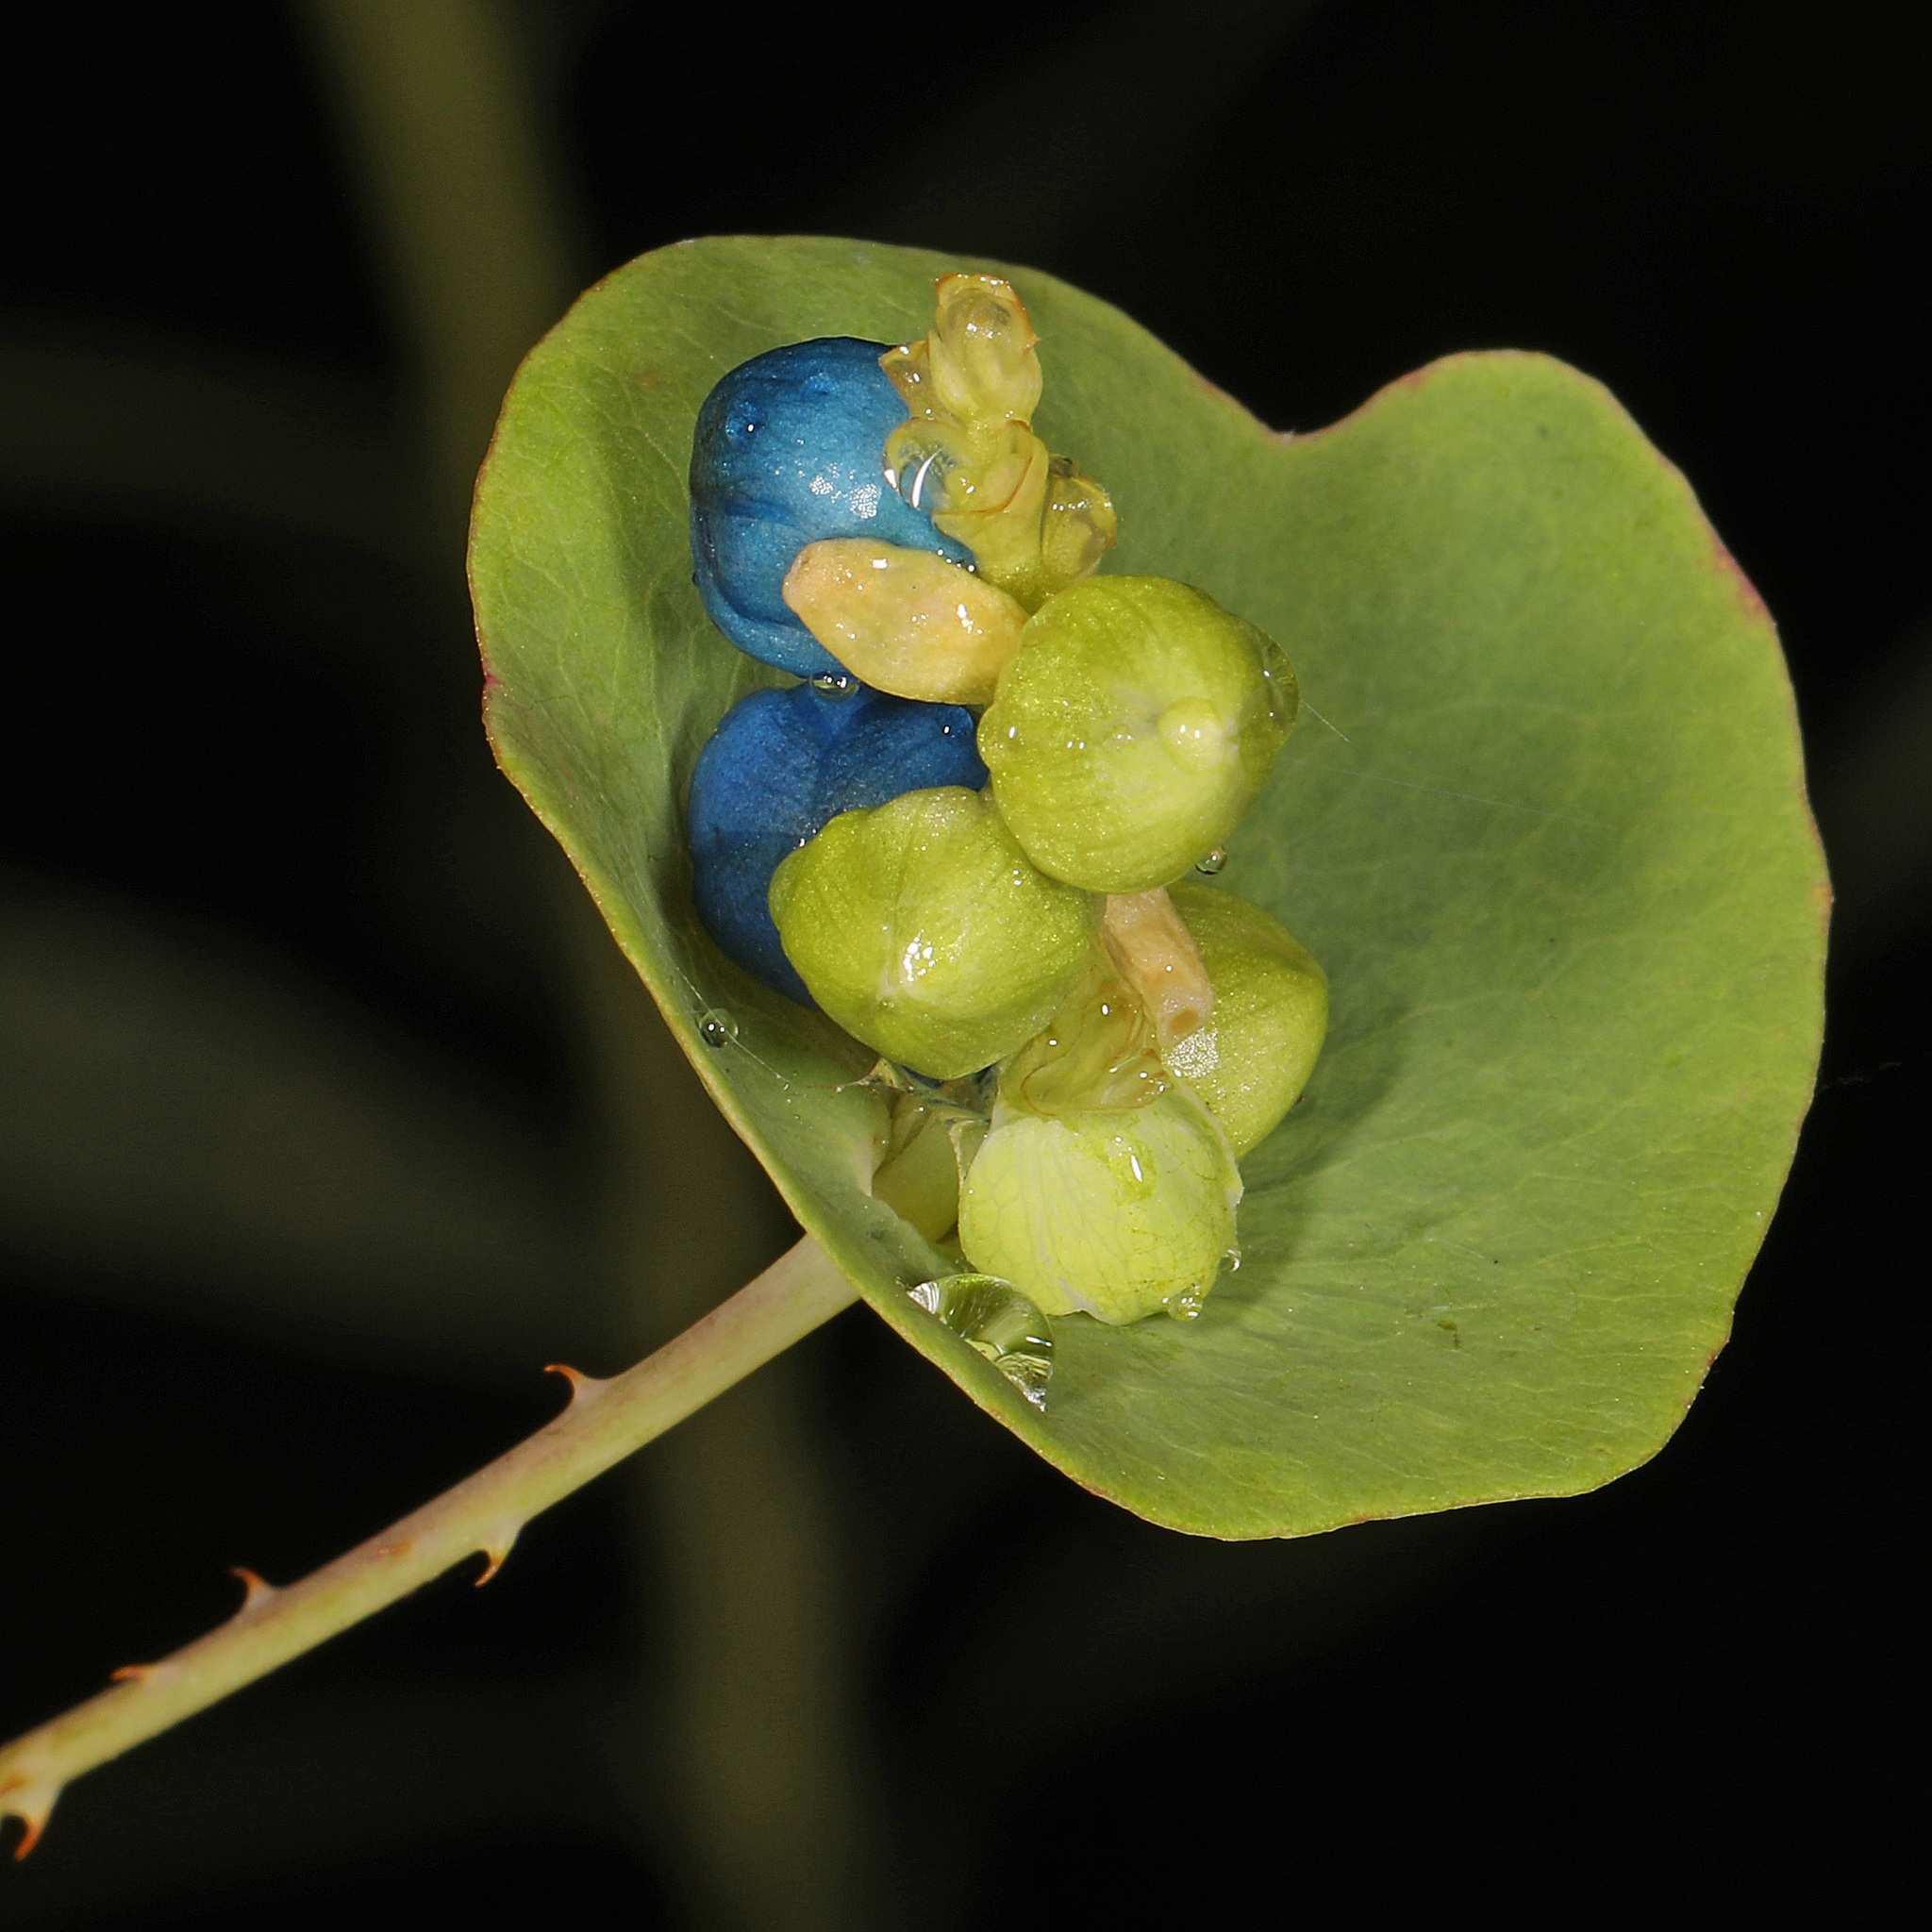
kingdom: Plantae
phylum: Tracheophyta
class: Magnoliopsida
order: Caryophyllales
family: Polygonaceae
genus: Persicaria
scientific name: Persicaria perfoliata
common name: Asiatic tearthumb
